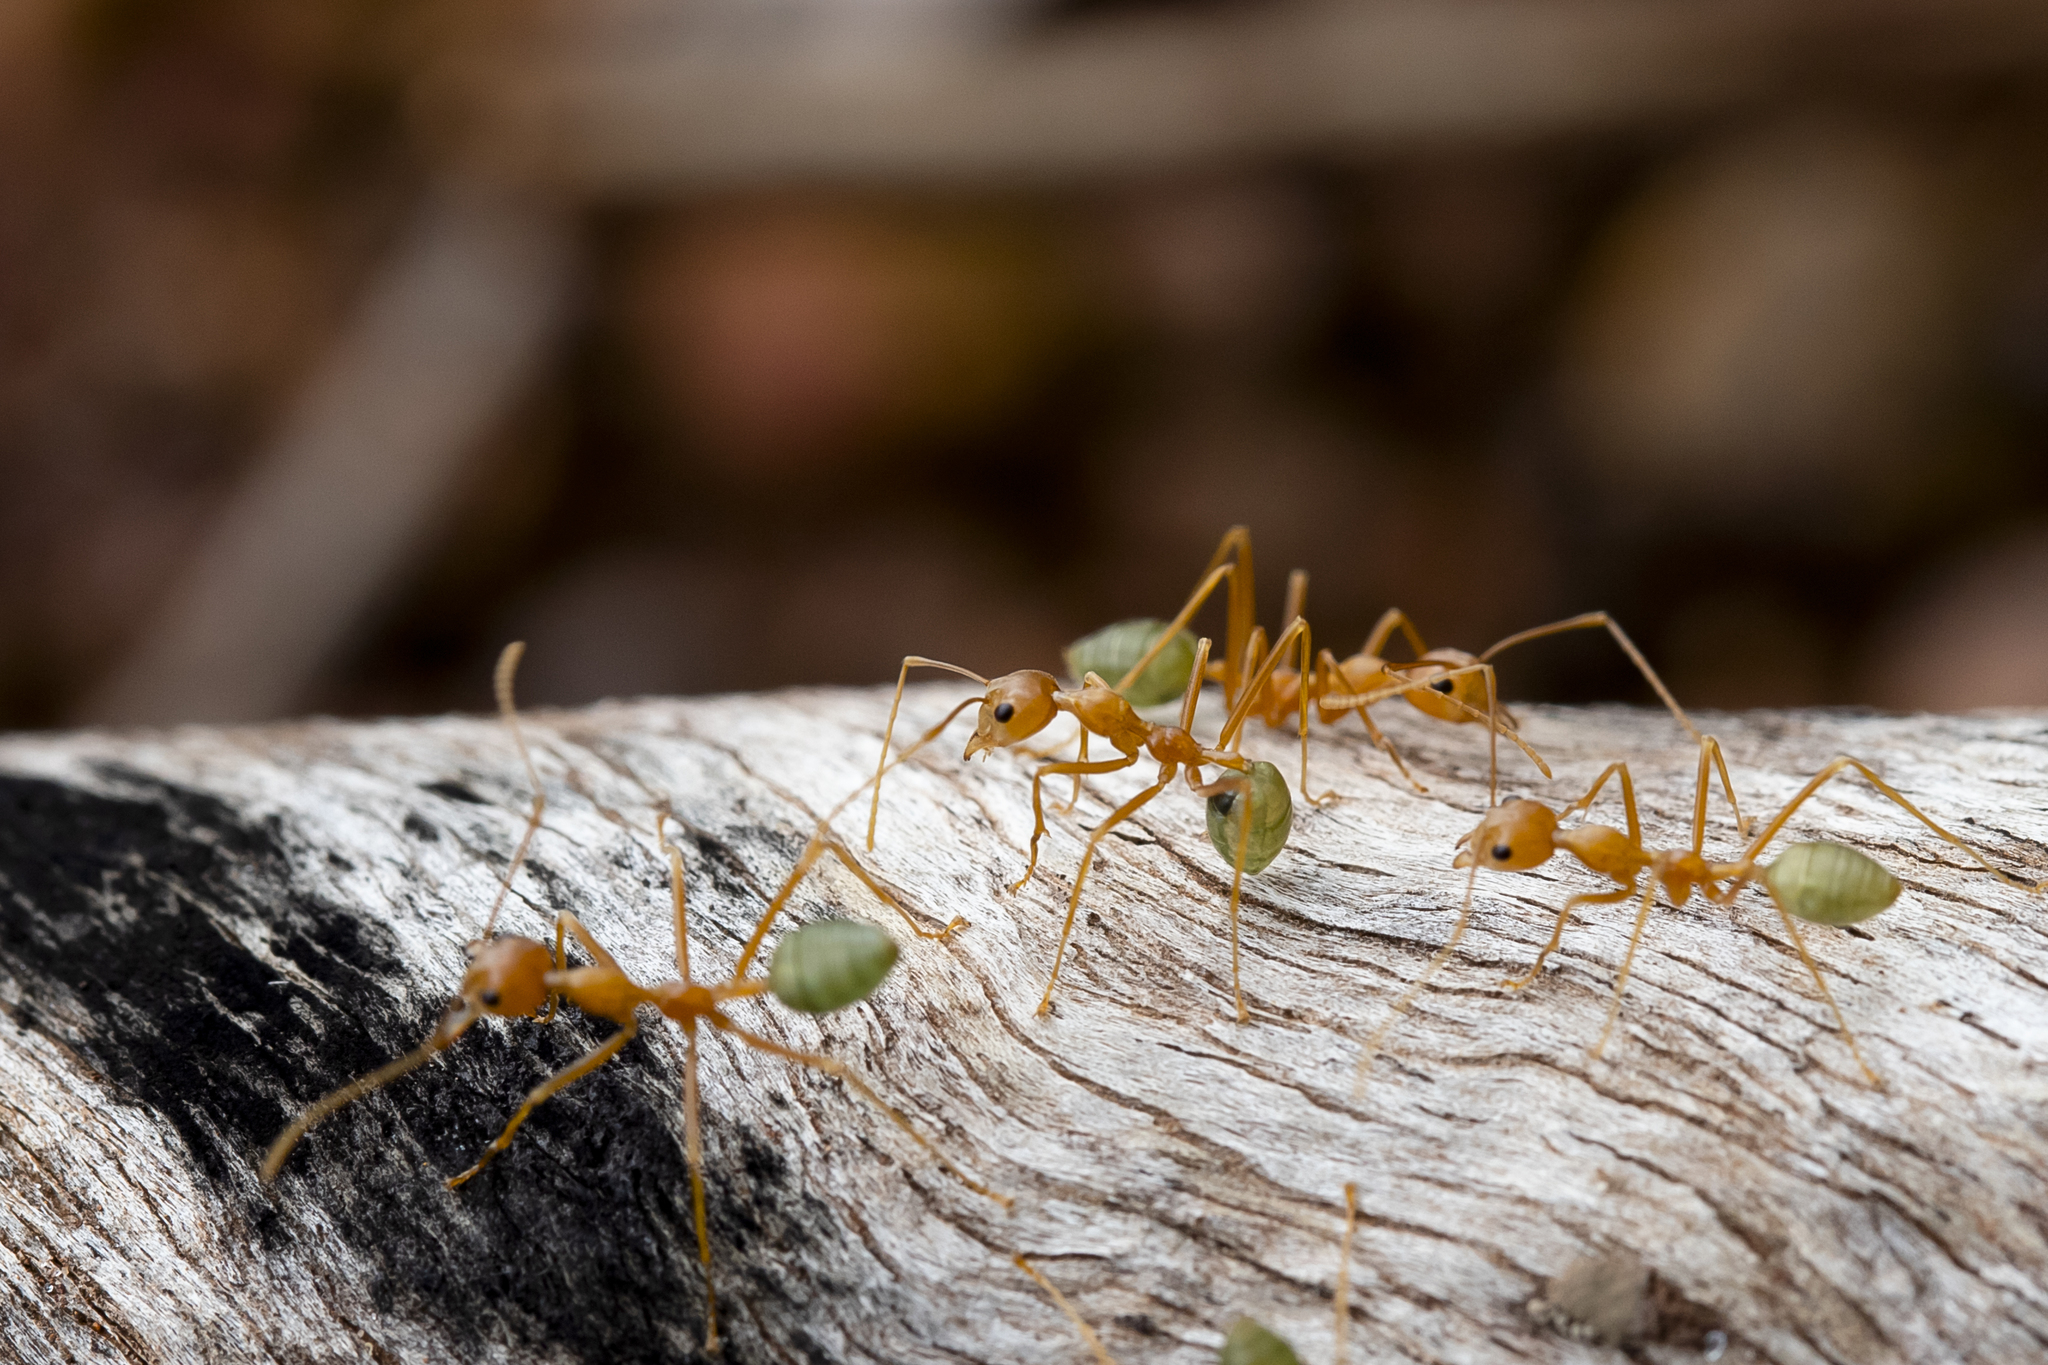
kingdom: Animalia
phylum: Arthropoda
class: Insecta
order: Hymenoptera
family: Formicidae
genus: Oecophylla
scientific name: Oecophylla smaragdina
